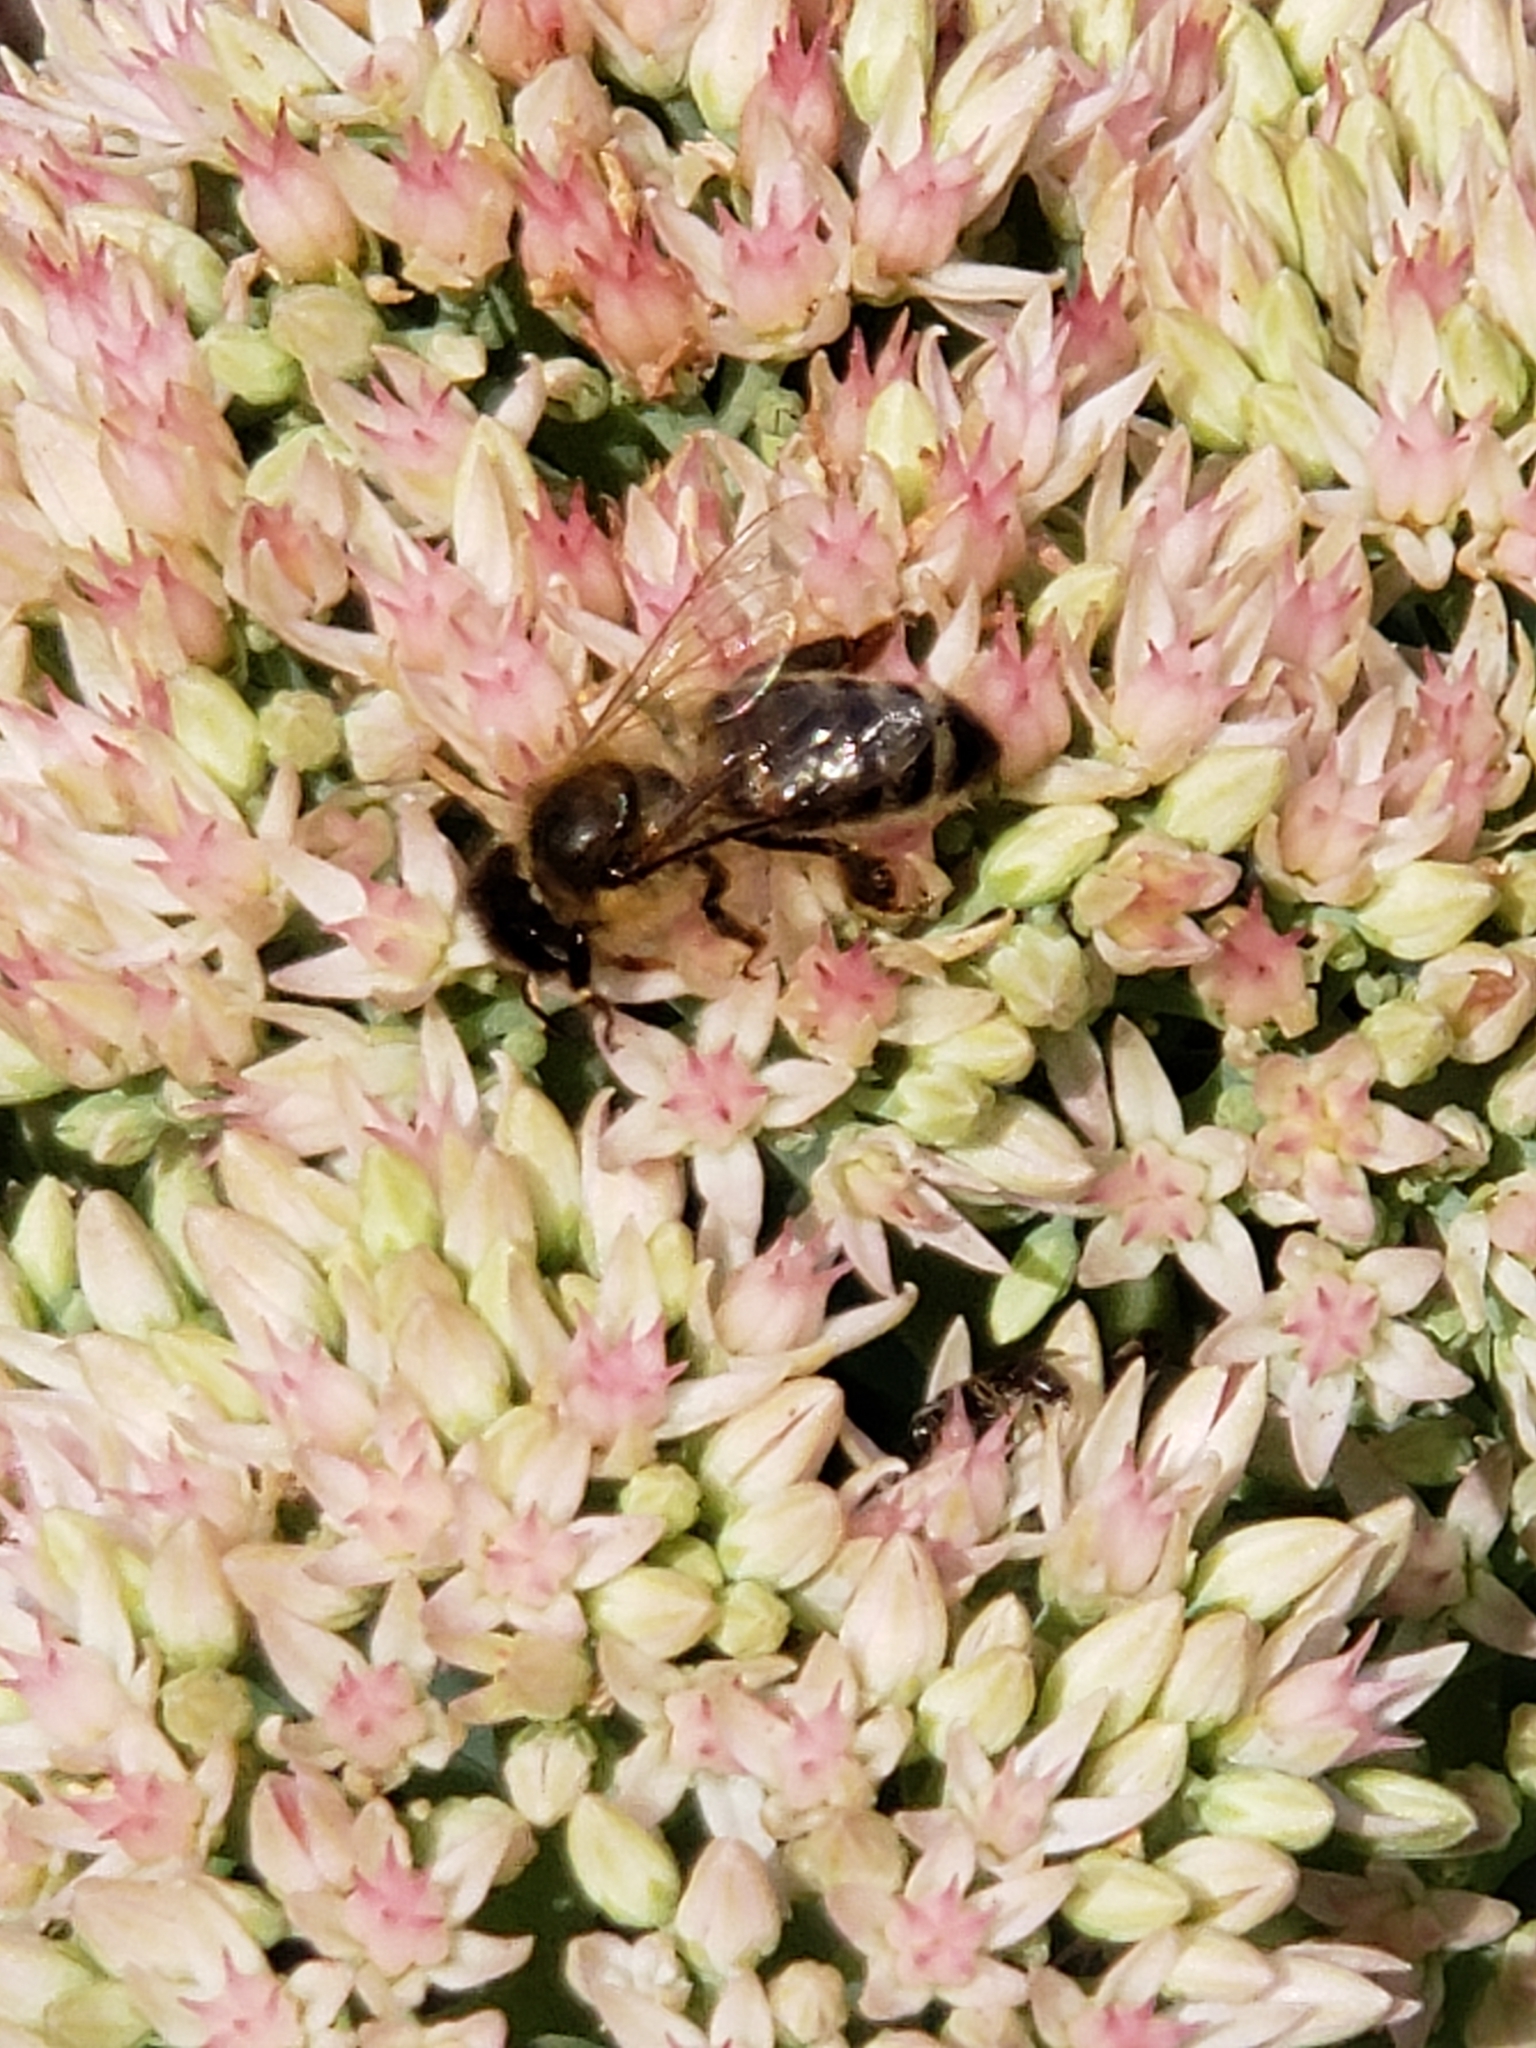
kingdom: Animalia
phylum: Arthropoda
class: Insecta
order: Hymenoptera
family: Apidae
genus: Apis
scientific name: Apis mellifera
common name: Honey bee
